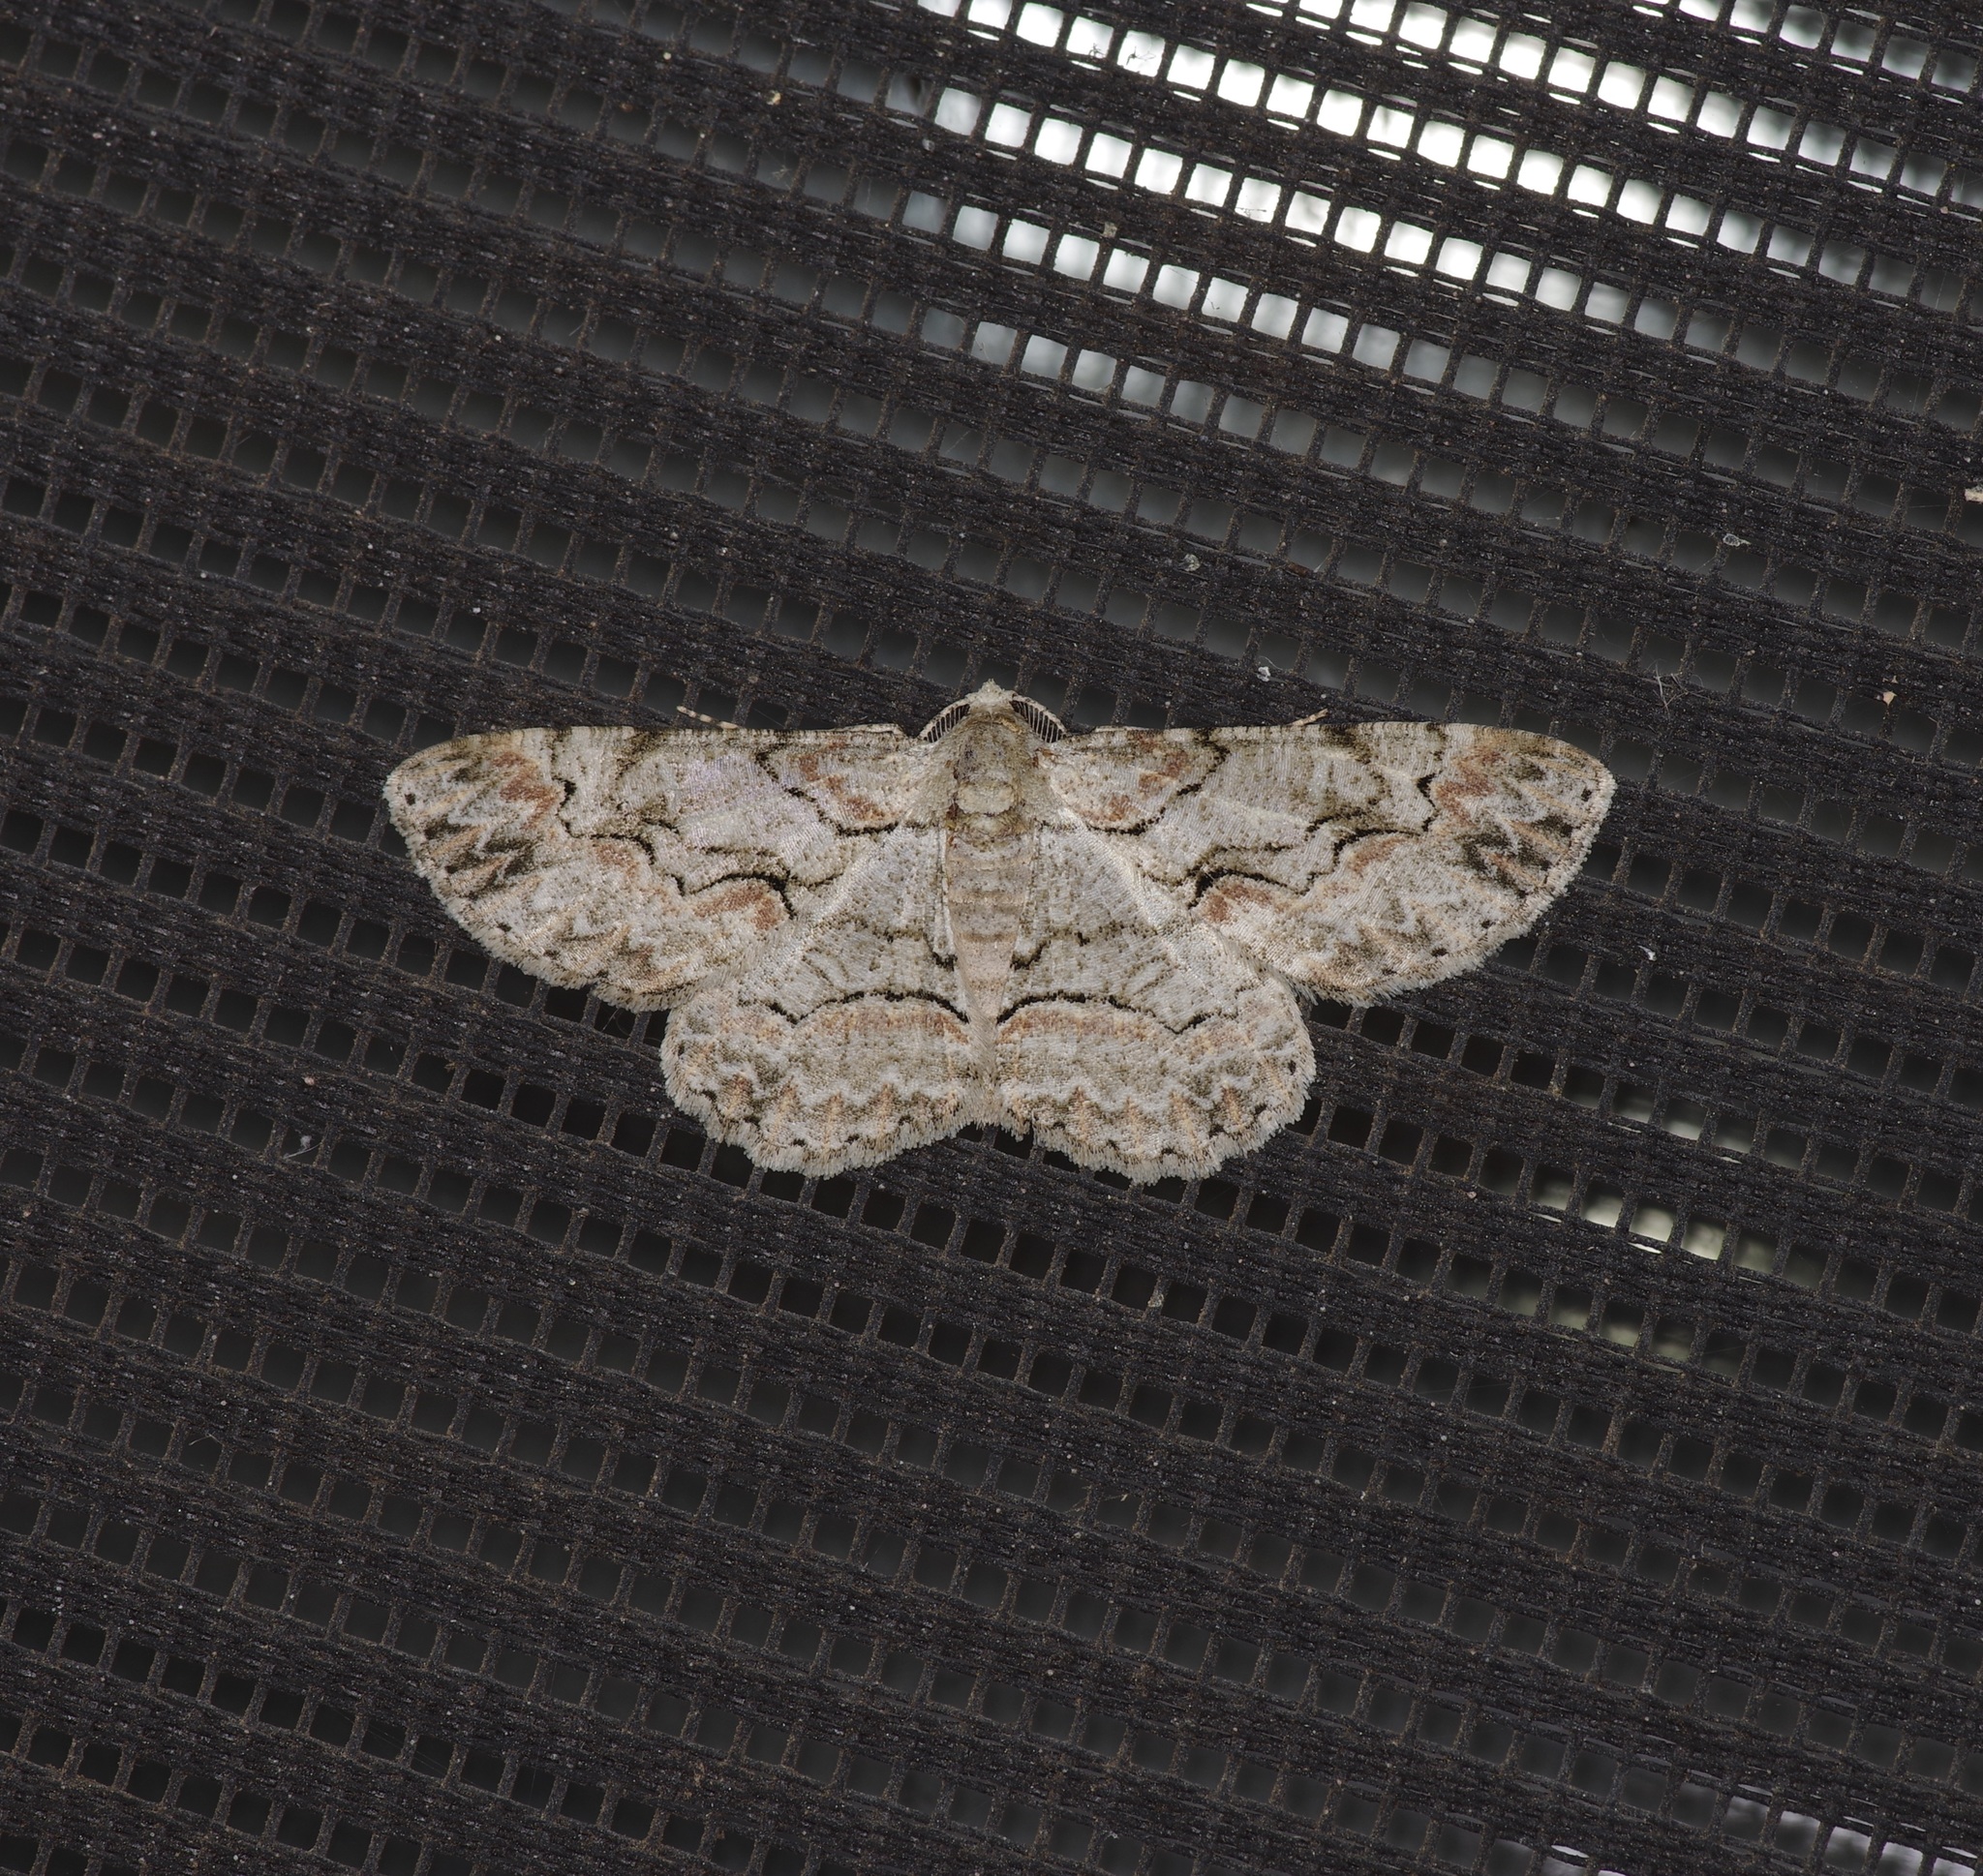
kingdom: Animalia
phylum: Arthropoda
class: Insecta
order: Lepidoptera
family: Geometridae
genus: Iridopsis
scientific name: Iridopsis defectaria
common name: Brown-shaded gray
